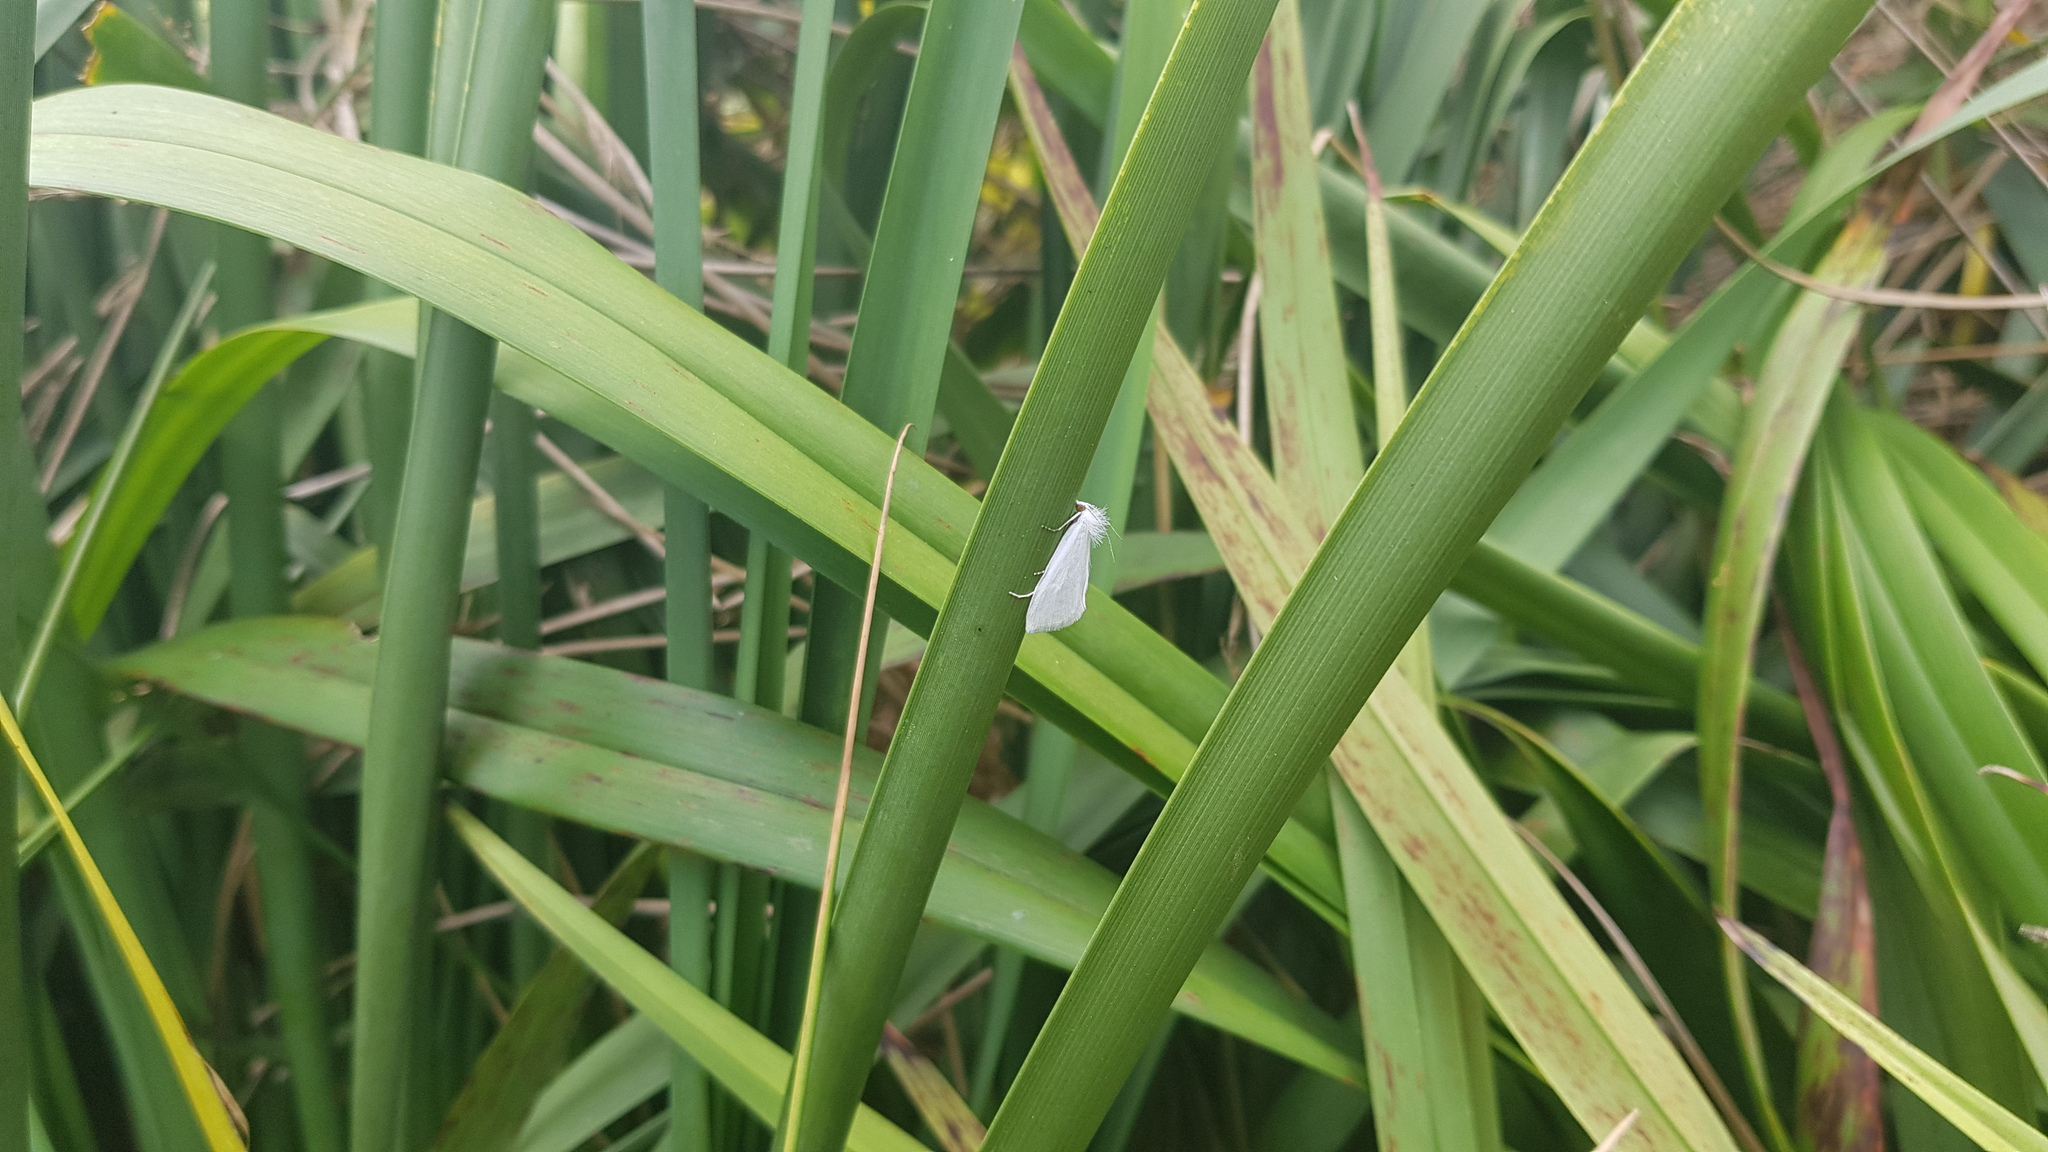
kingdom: Animalia
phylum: Arthropoda
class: Insecta
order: Lepidoptera
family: Crambidae
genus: Tipanaea
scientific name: Tipanaea patulella
